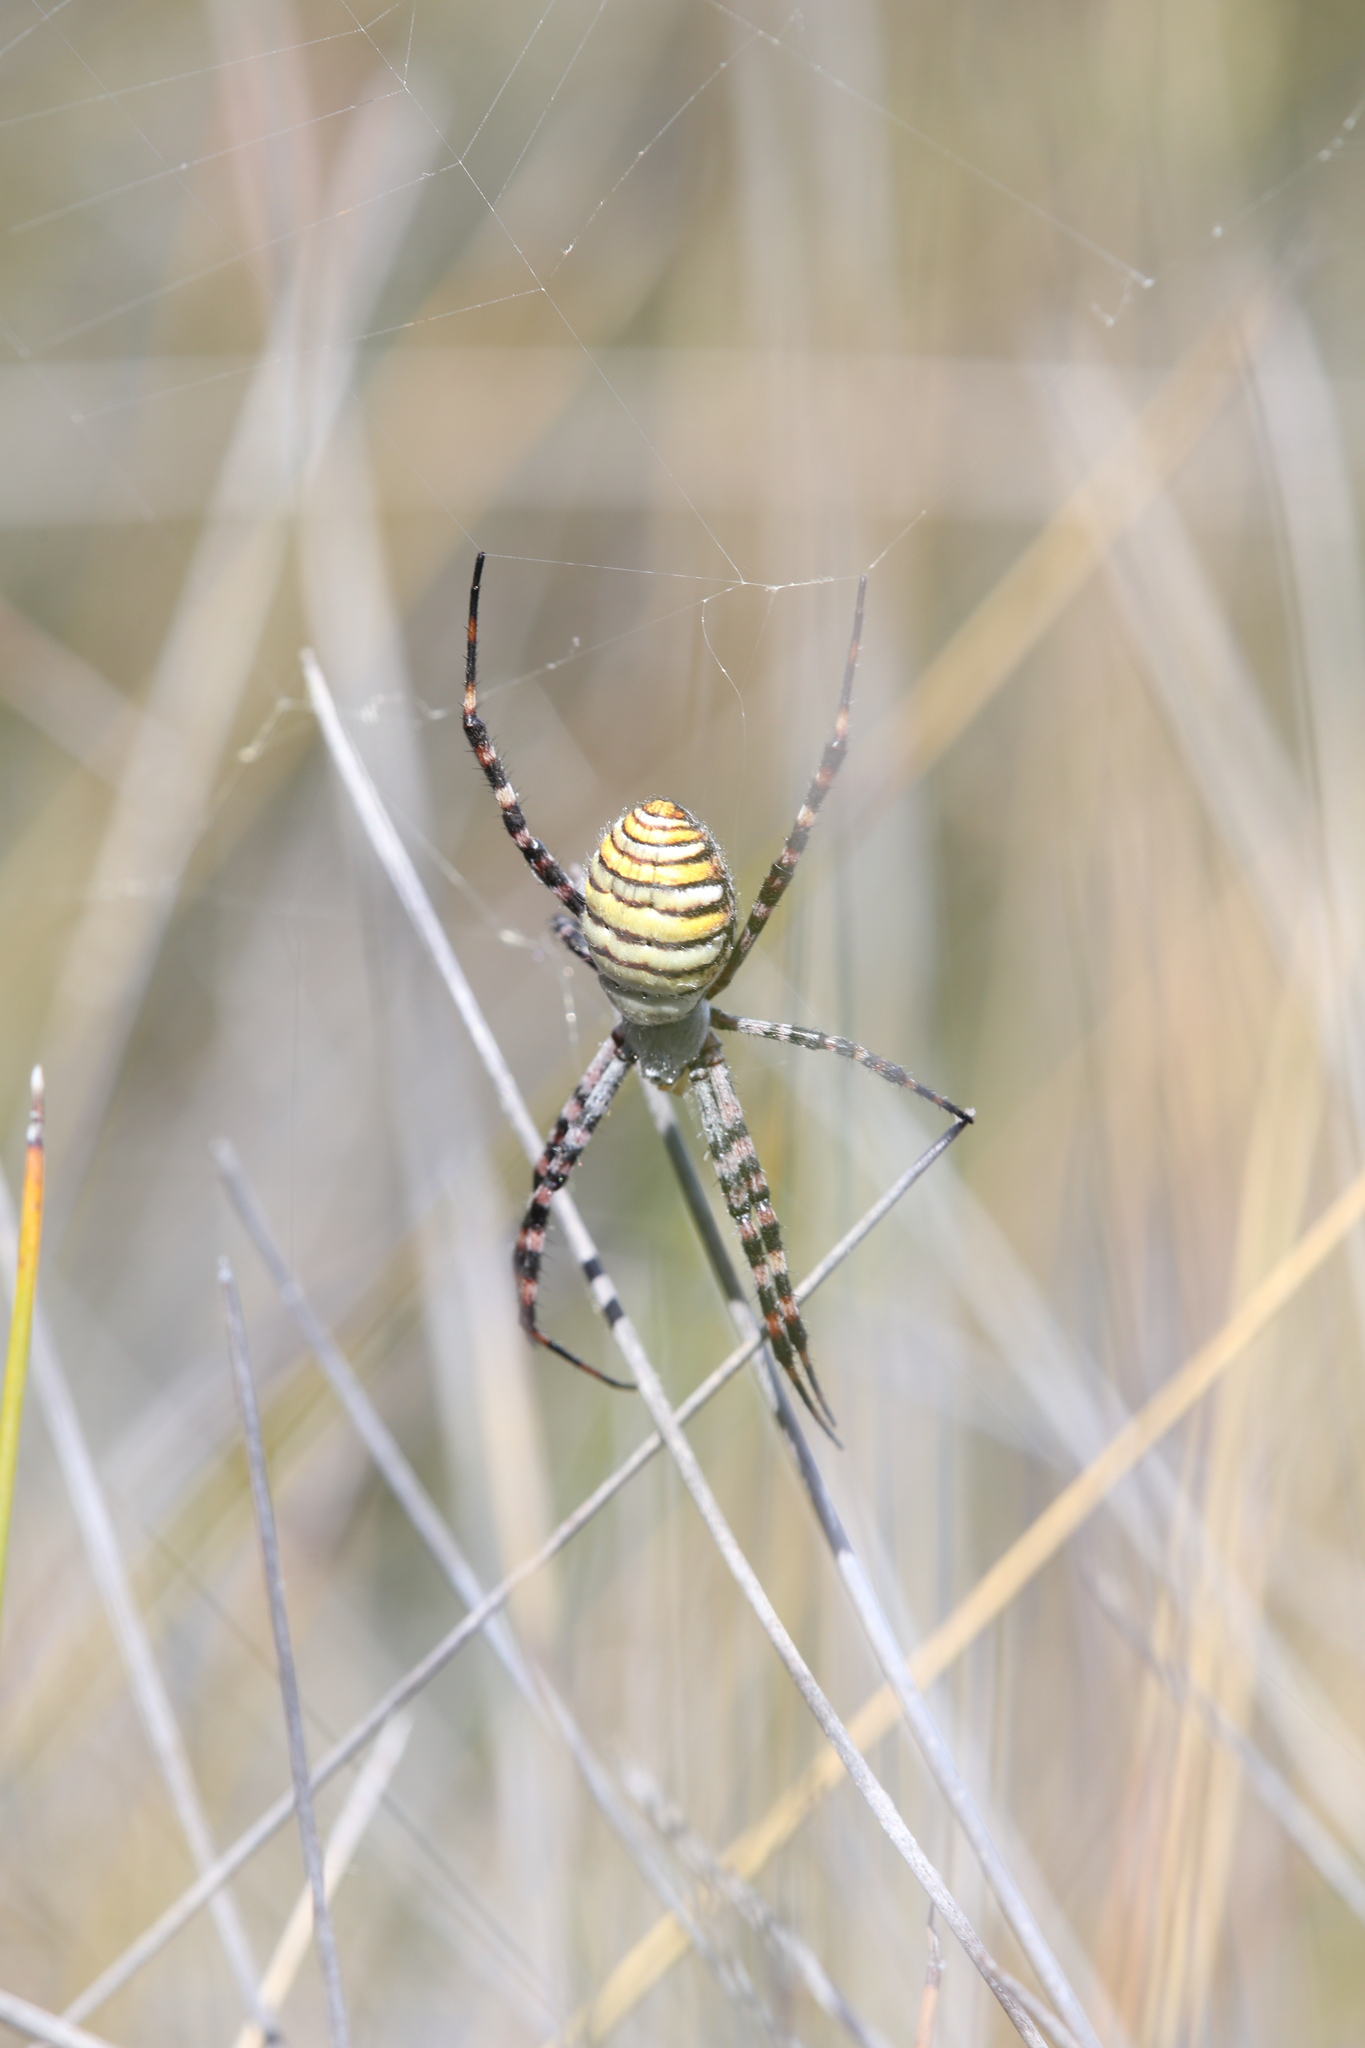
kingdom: Animalia
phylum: Arthropoda
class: Arachnida
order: Araneae
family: Araneidae
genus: Argiope
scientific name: Argiope trifasciata
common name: Banded garden spider
